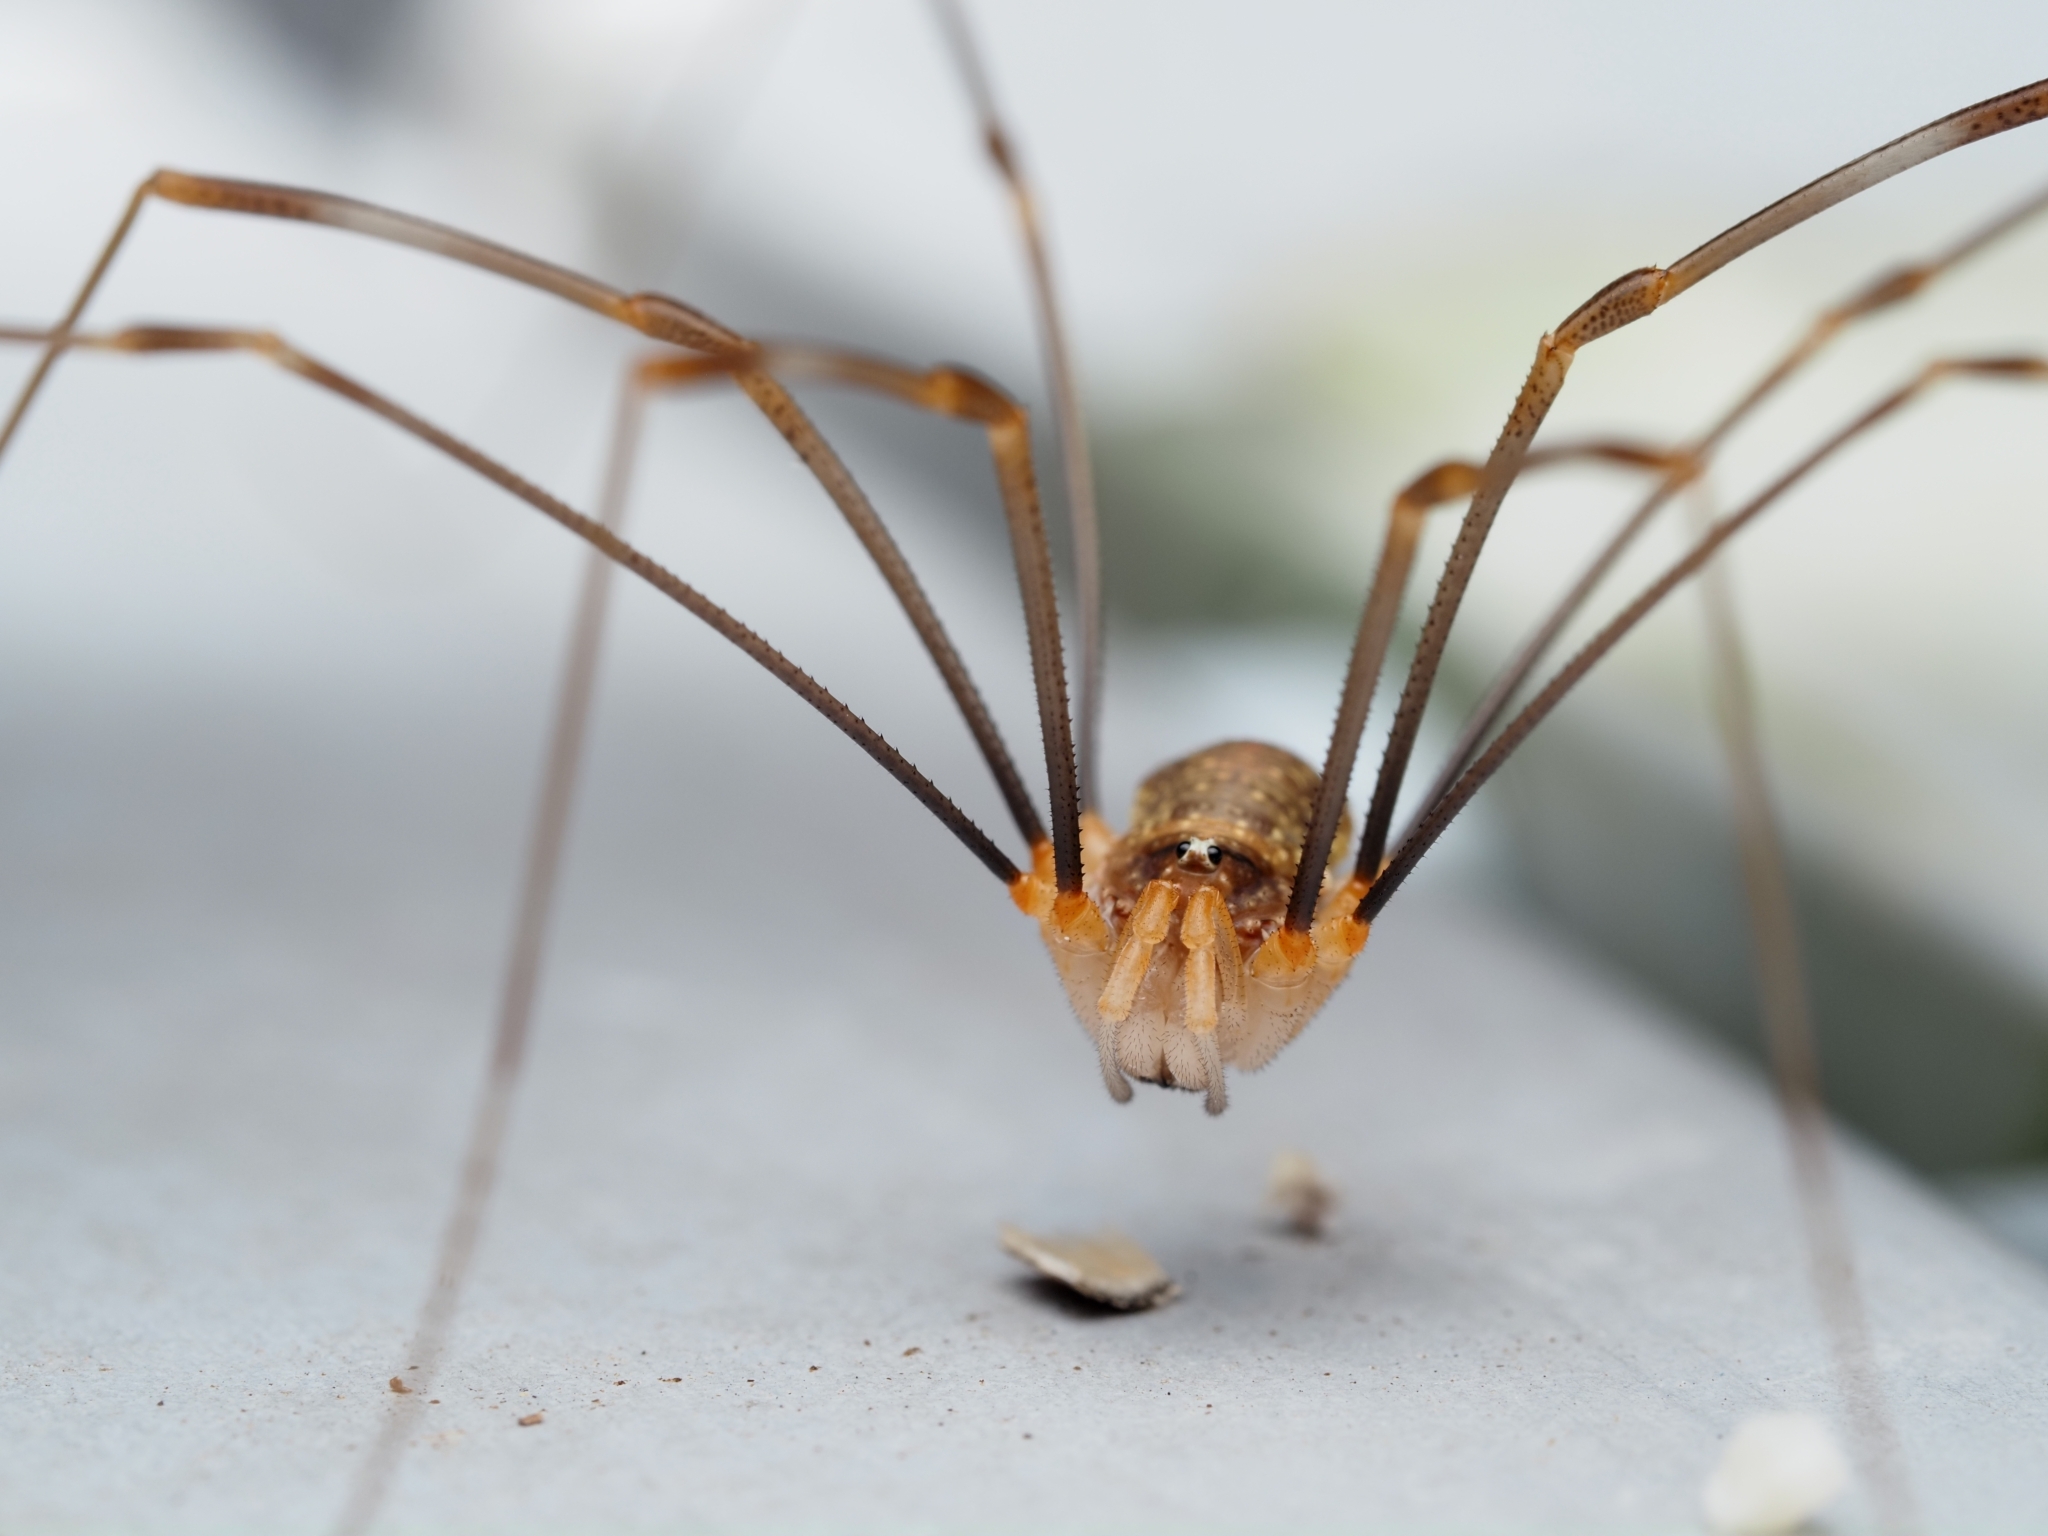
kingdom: Animalia
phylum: Arthropoda
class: Arachnida
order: Opiliones
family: Phalangiidae
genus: Opilio
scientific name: Opilio canestrinii
